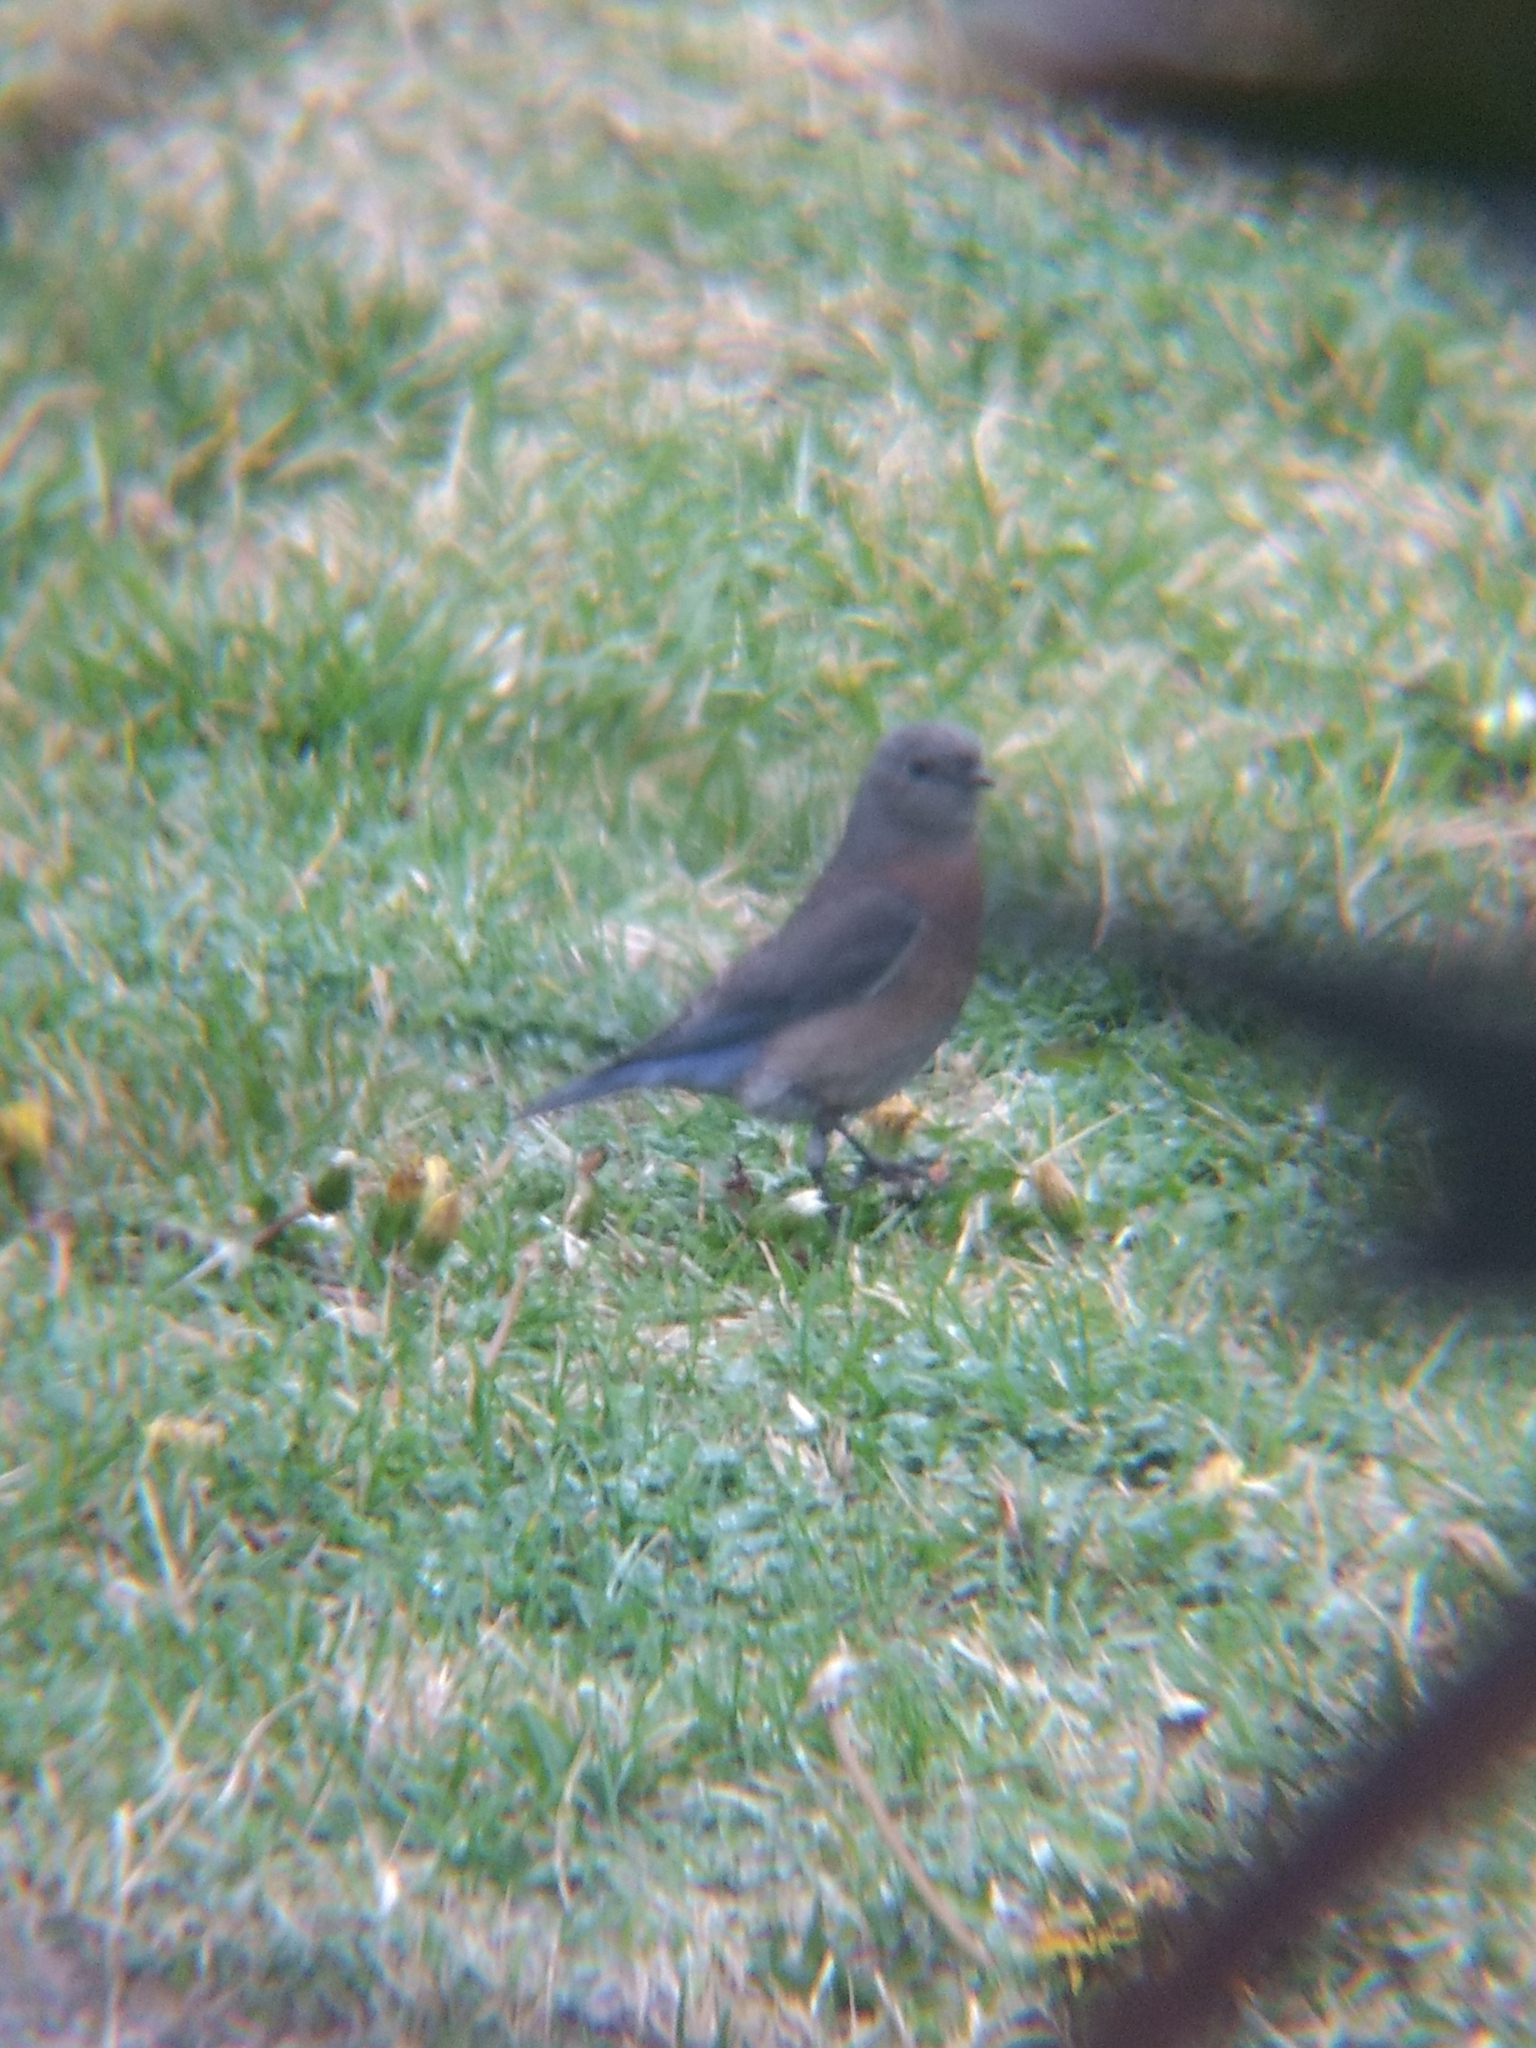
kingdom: Animalia
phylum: Chordata
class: Aves
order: Passeriformes
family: Turdidae
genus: Sialia
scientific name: Sialia mexicana
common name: Western bluebird
